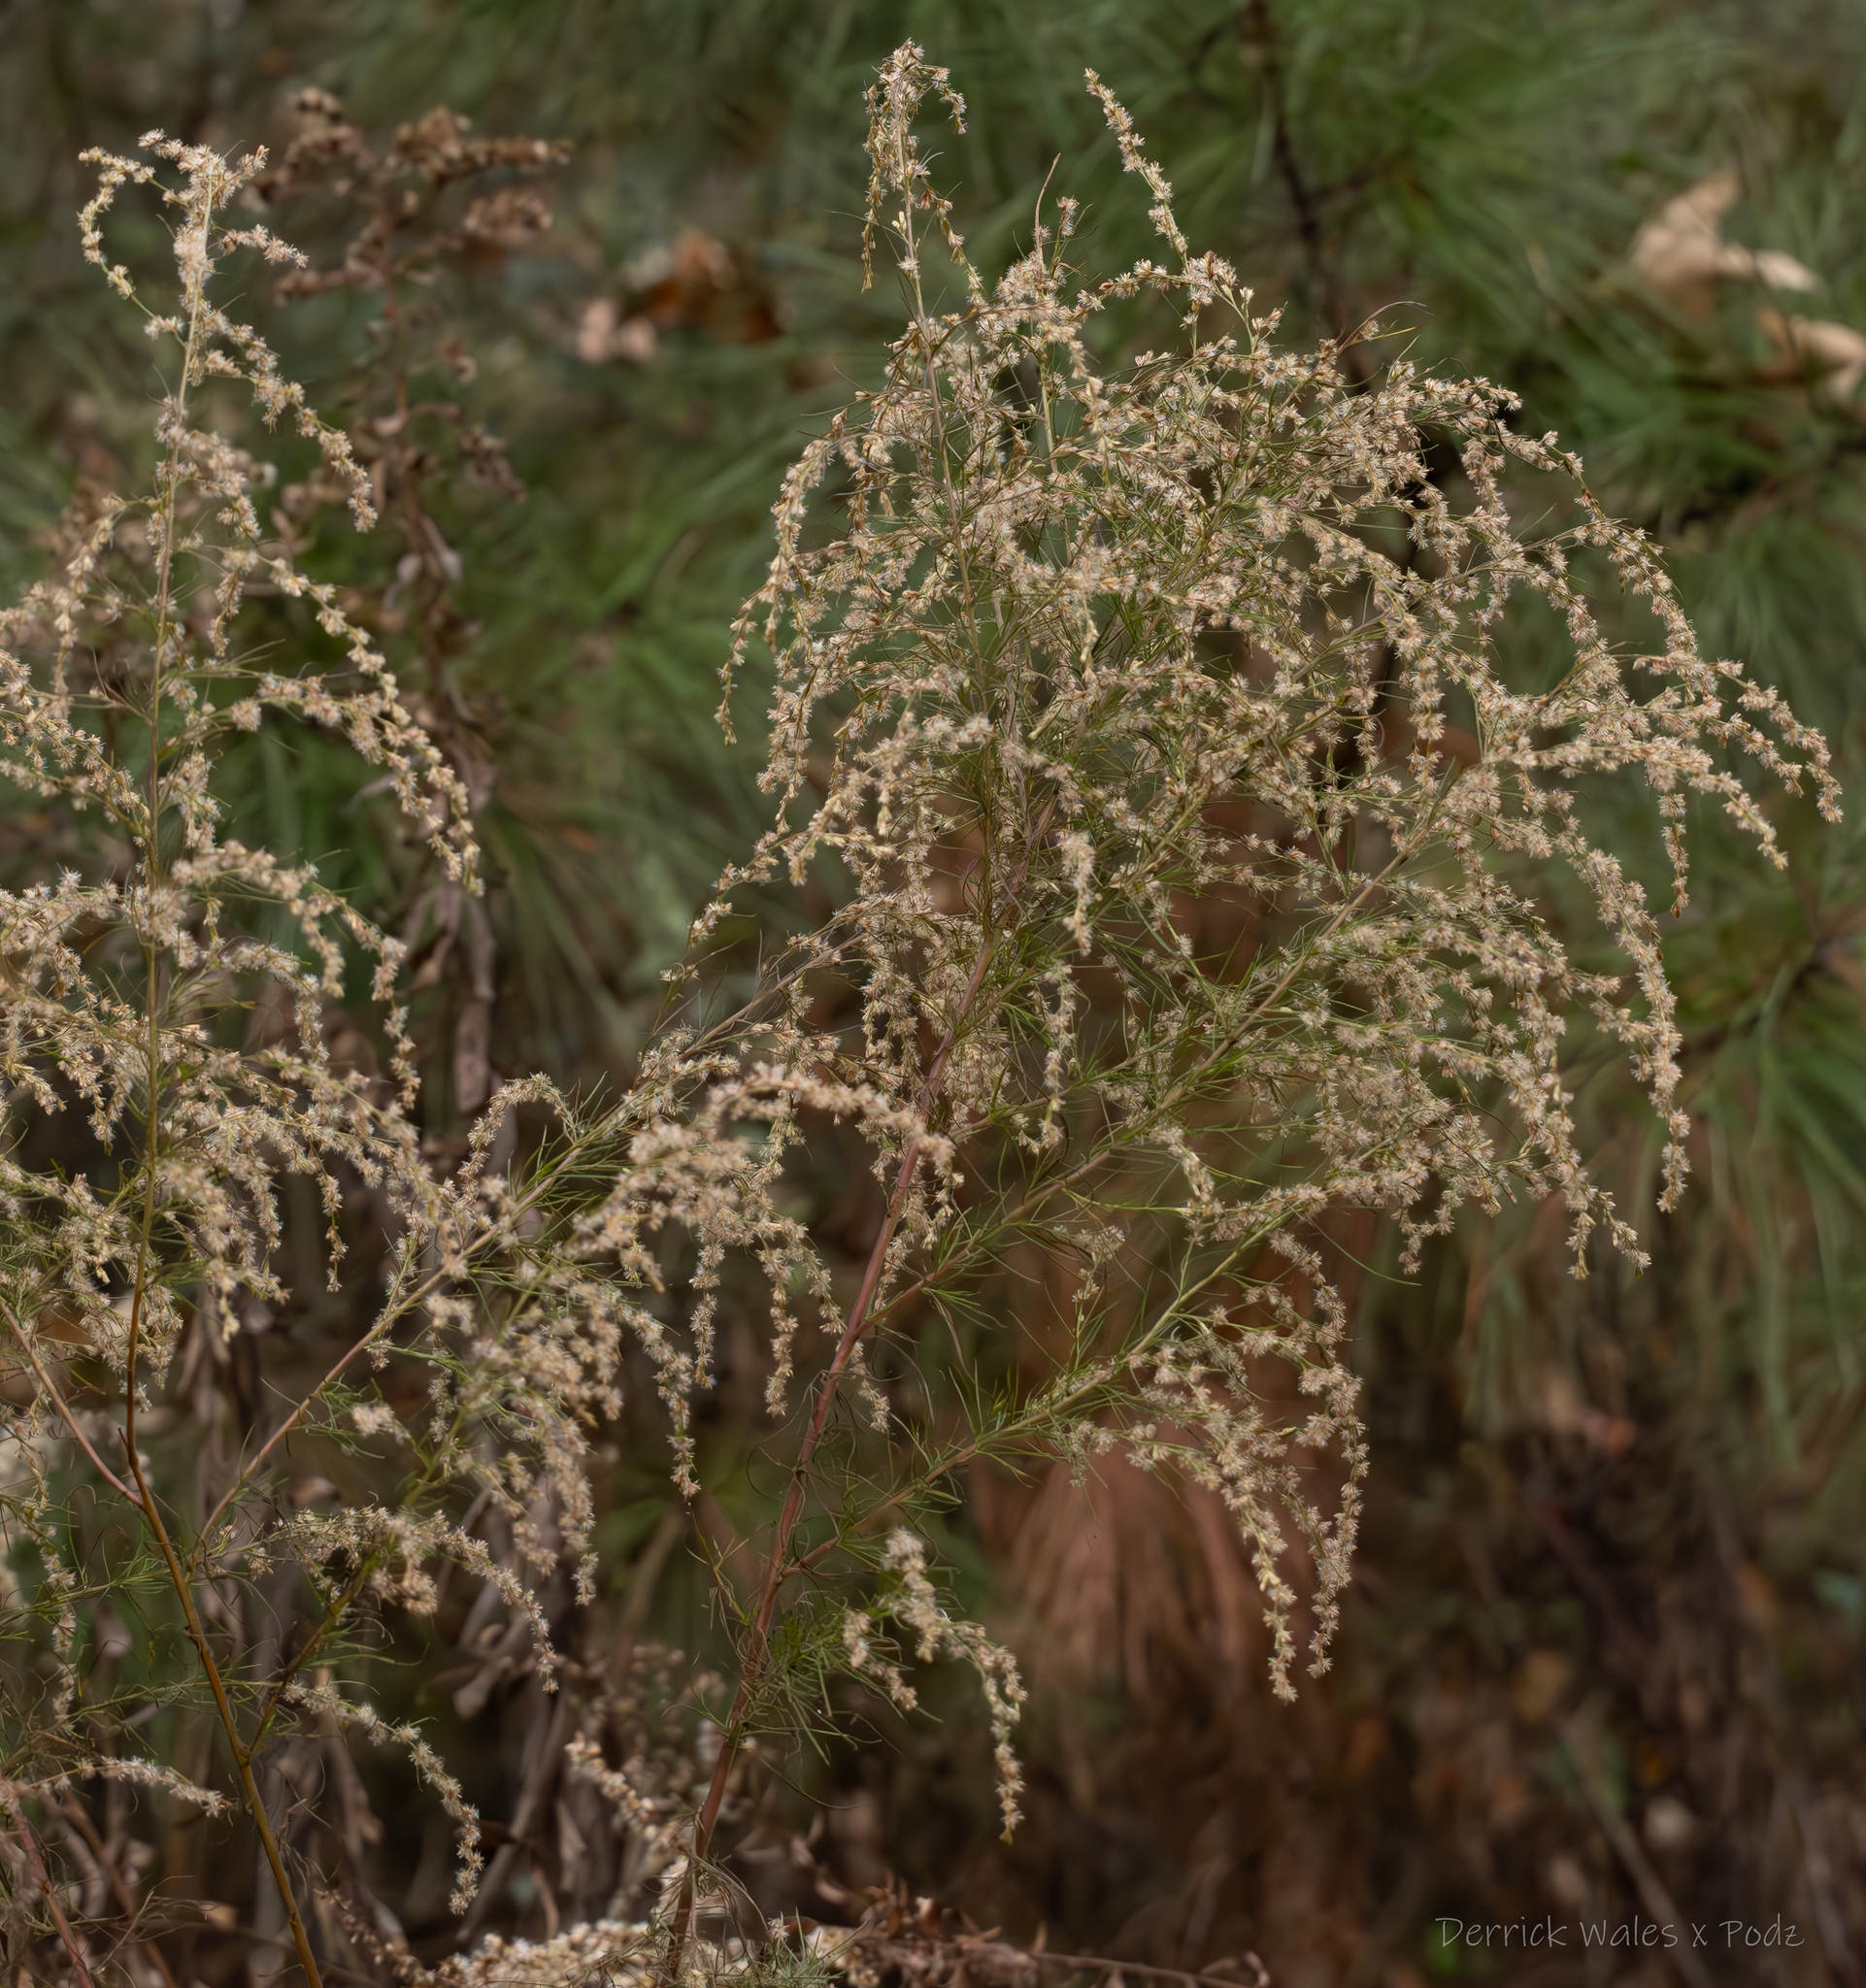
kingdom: Plantae
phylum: Tracheophyta
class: Magnoliopsida
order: Asterales
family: Asteraceae
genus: Eupatorium
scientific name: Eupatorium capillifolium
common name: Dog-fennel
